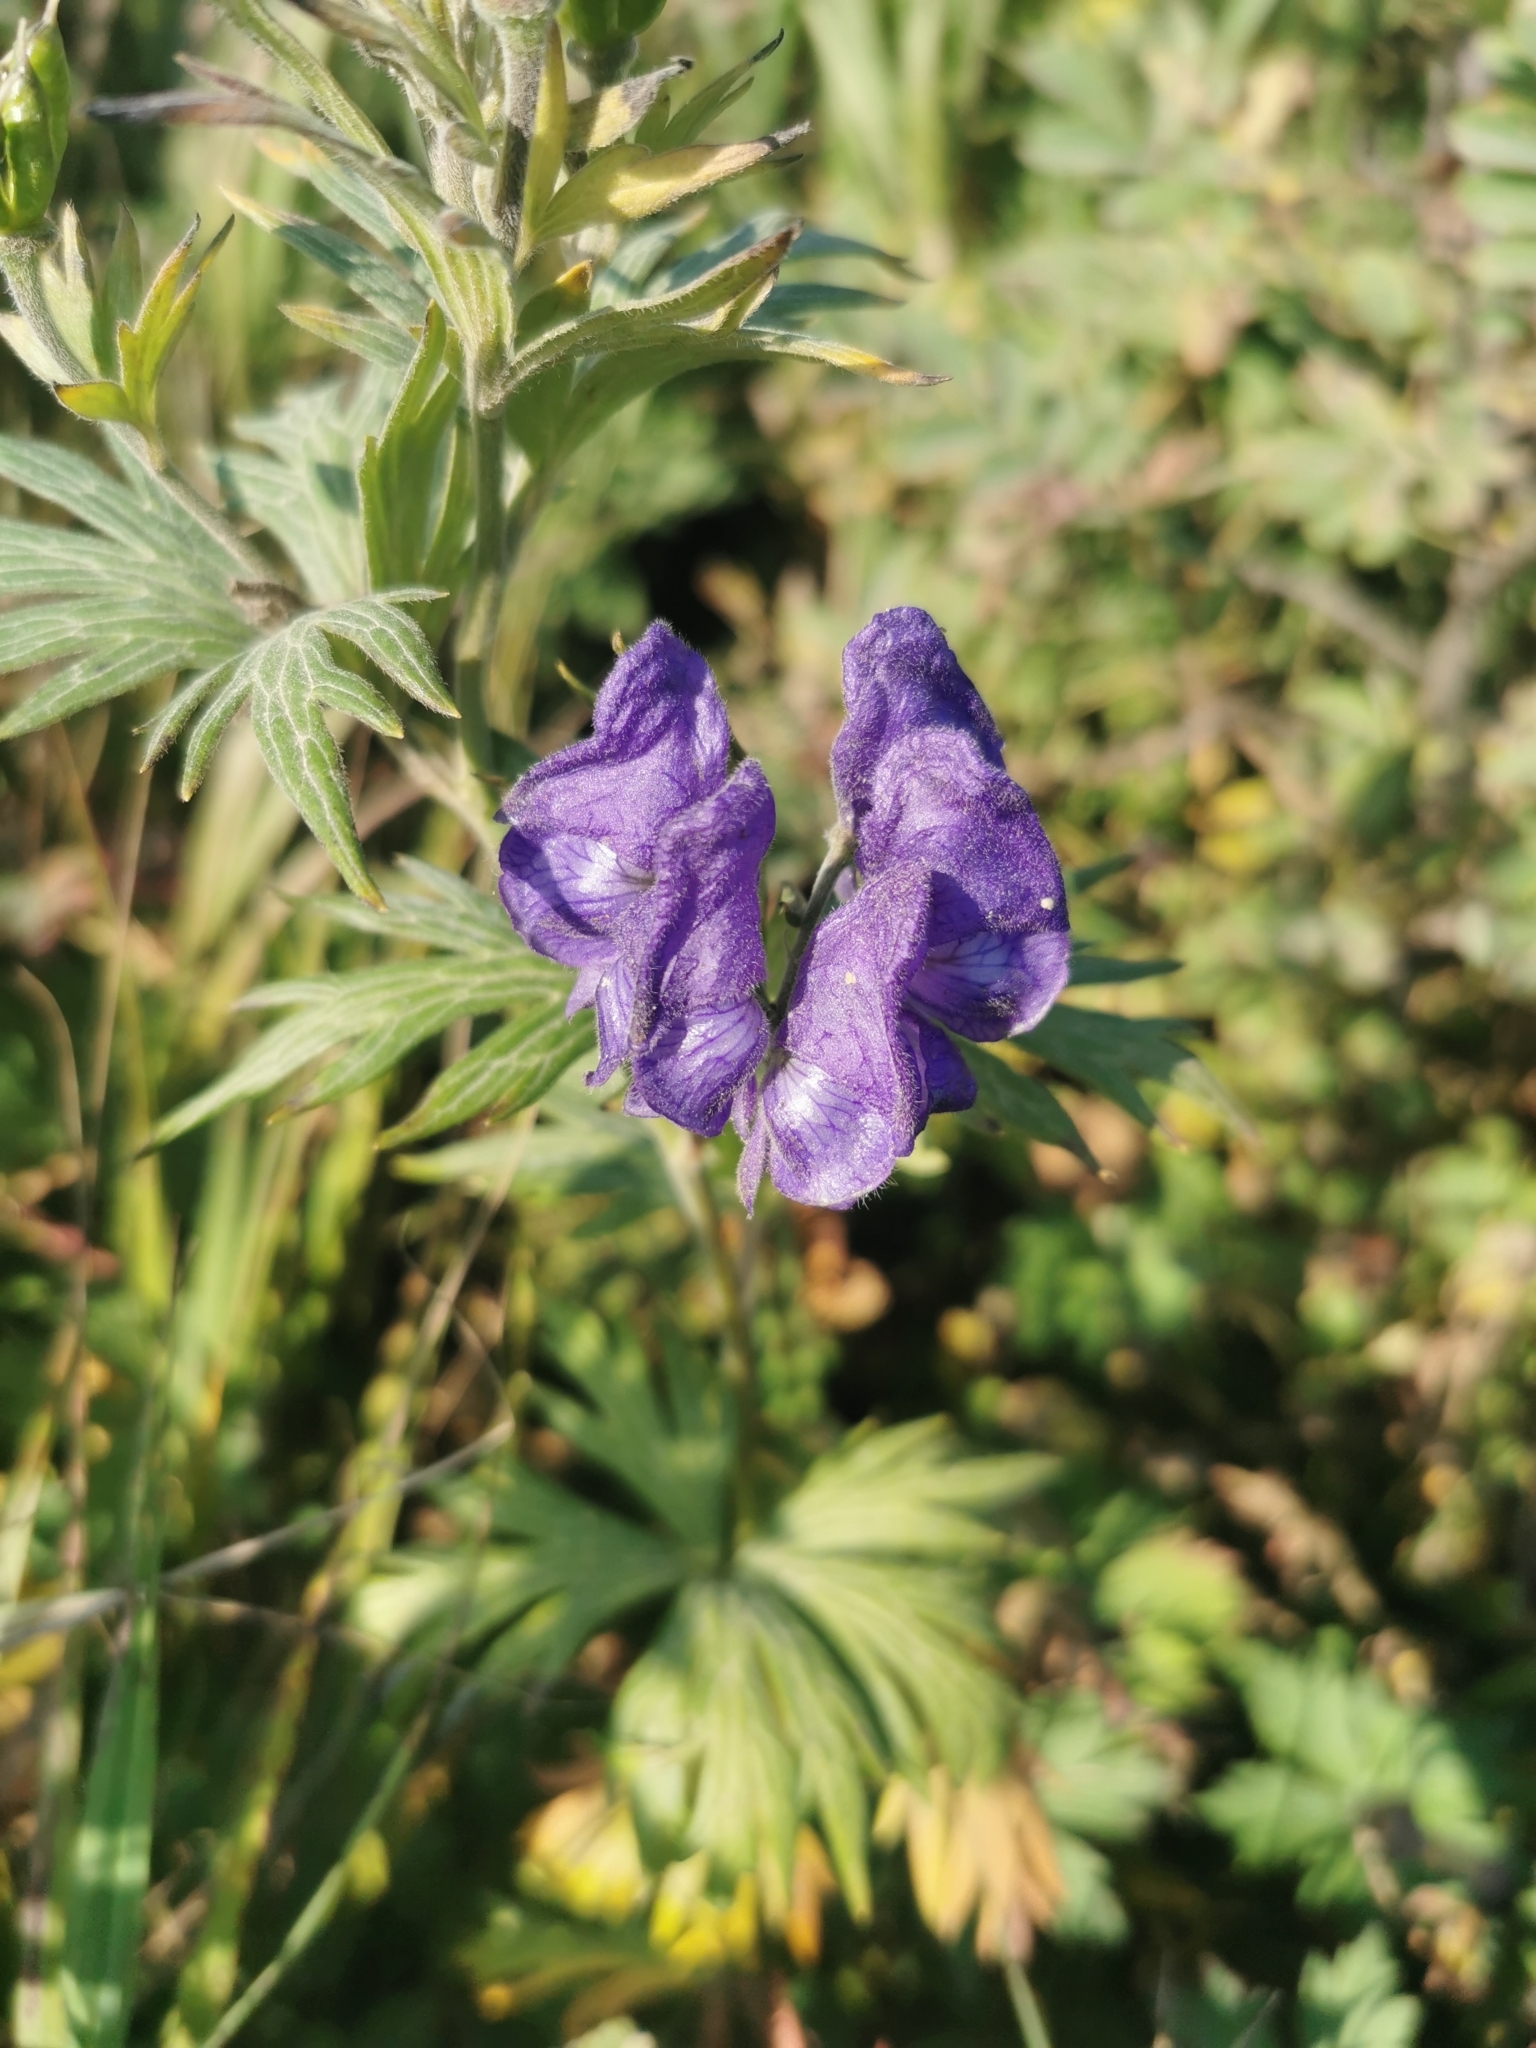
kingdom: Plantae
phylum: Tracheophyta
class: Magnoliopsida
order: Ranunculales
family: Ranunculaceae
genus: Aconitum
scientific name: Aconitum maximum
